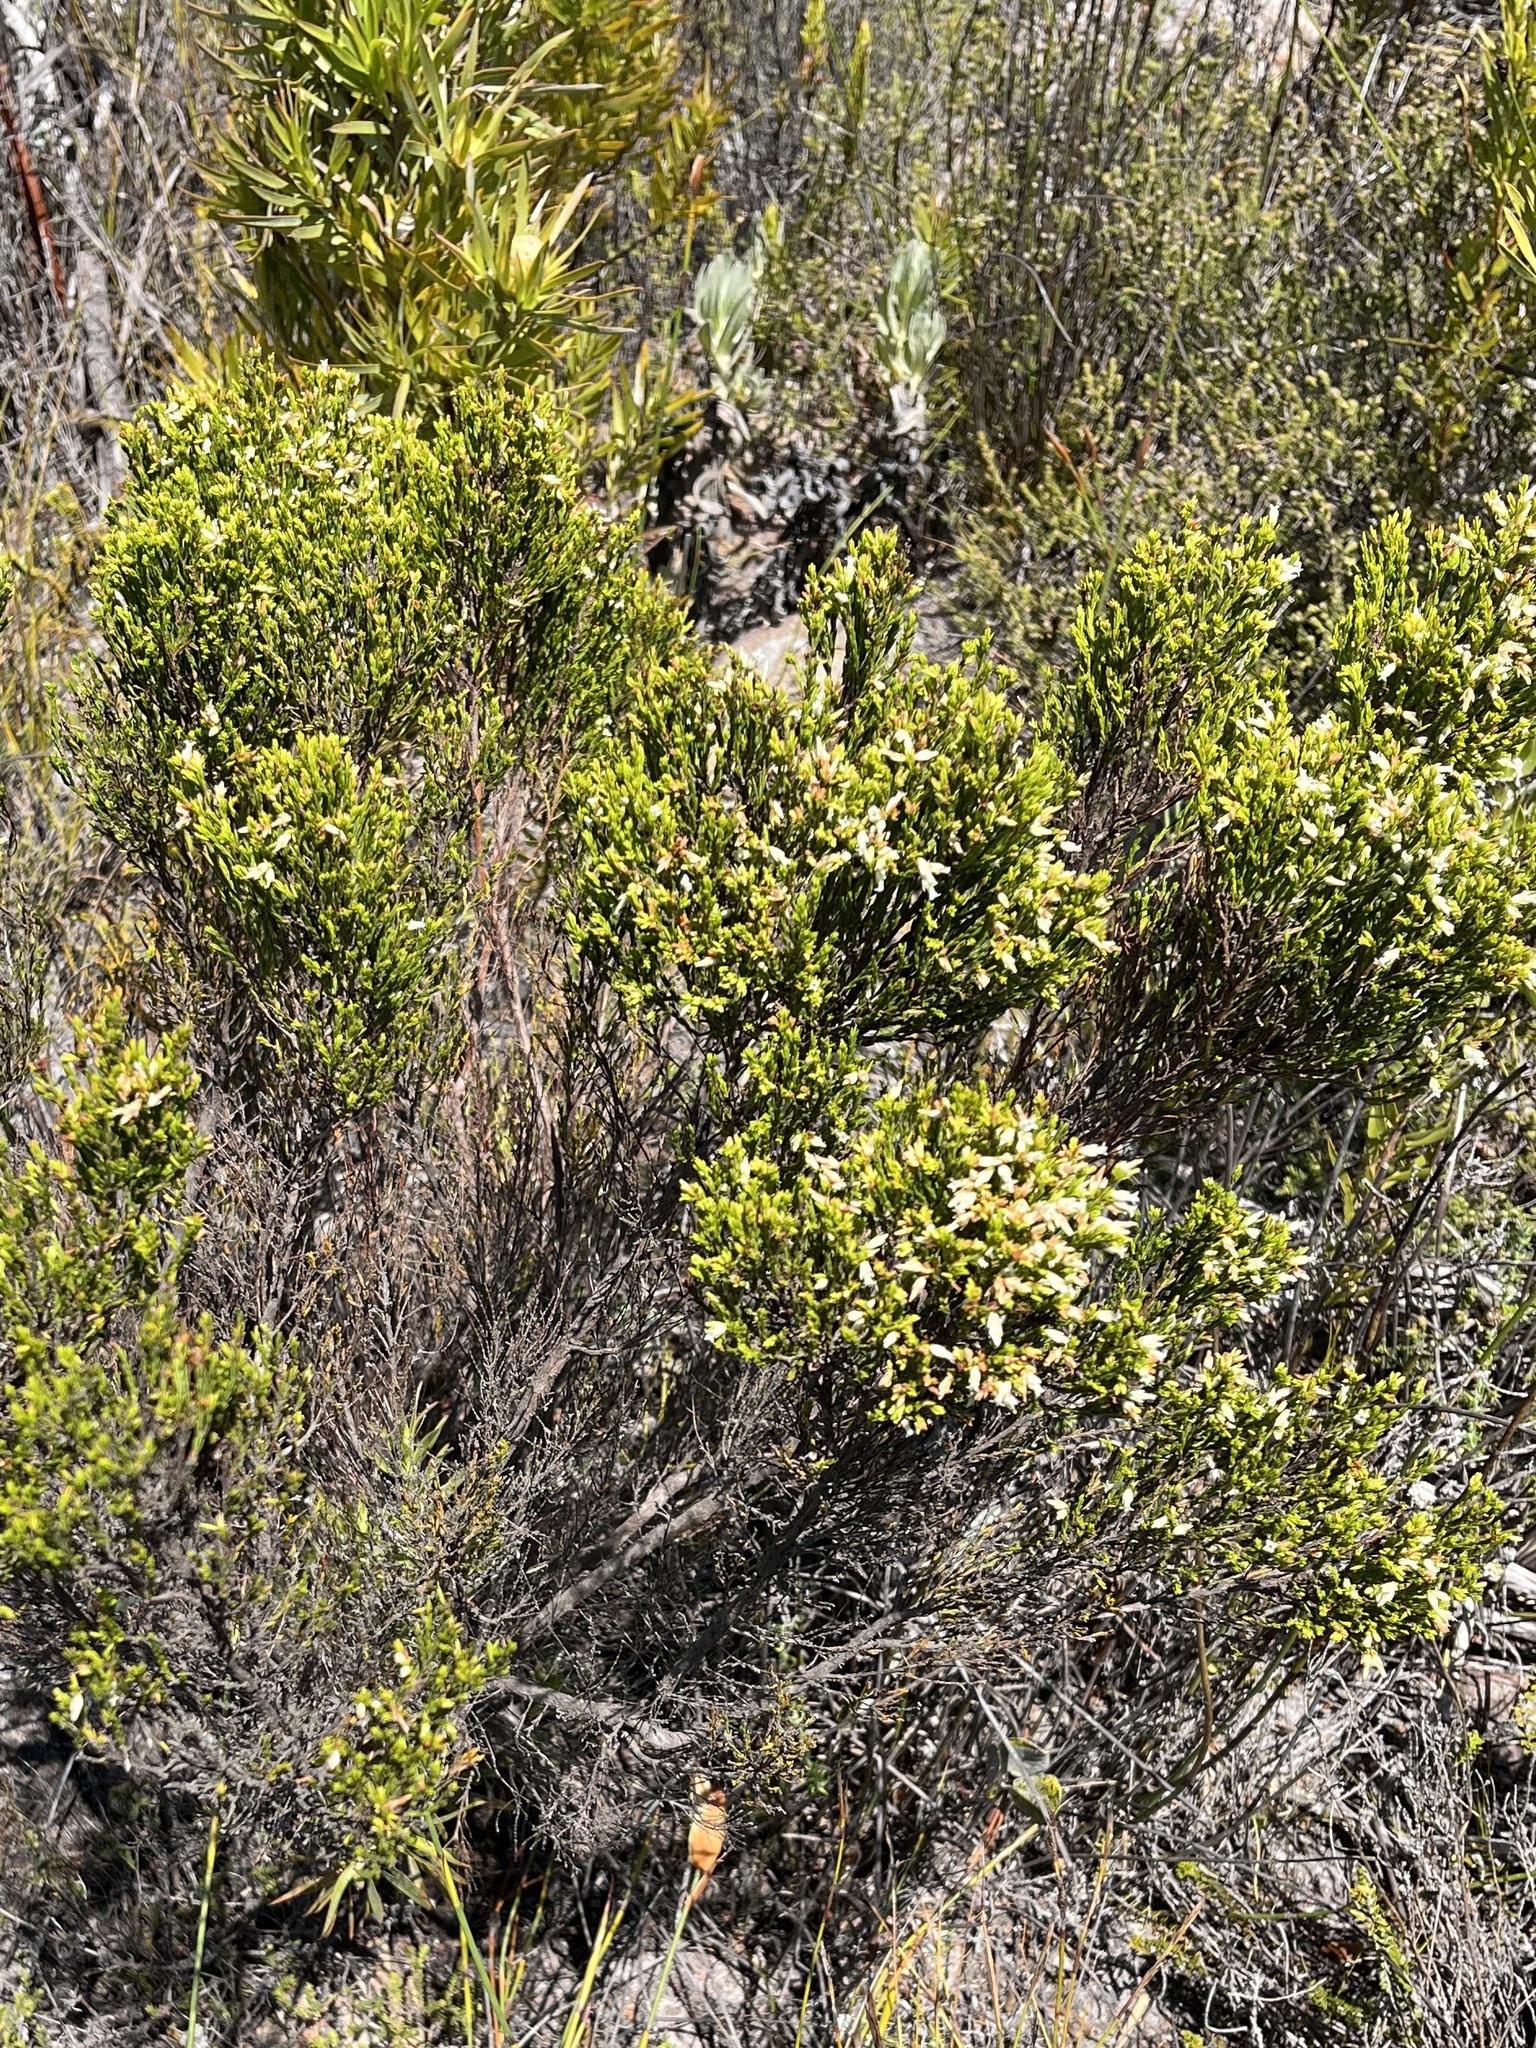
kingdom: Plantae
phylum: Tracheophyta
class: Magnoliopsida
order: Ericales
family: Ericaceae
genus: Erica
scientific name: Erica lutea
